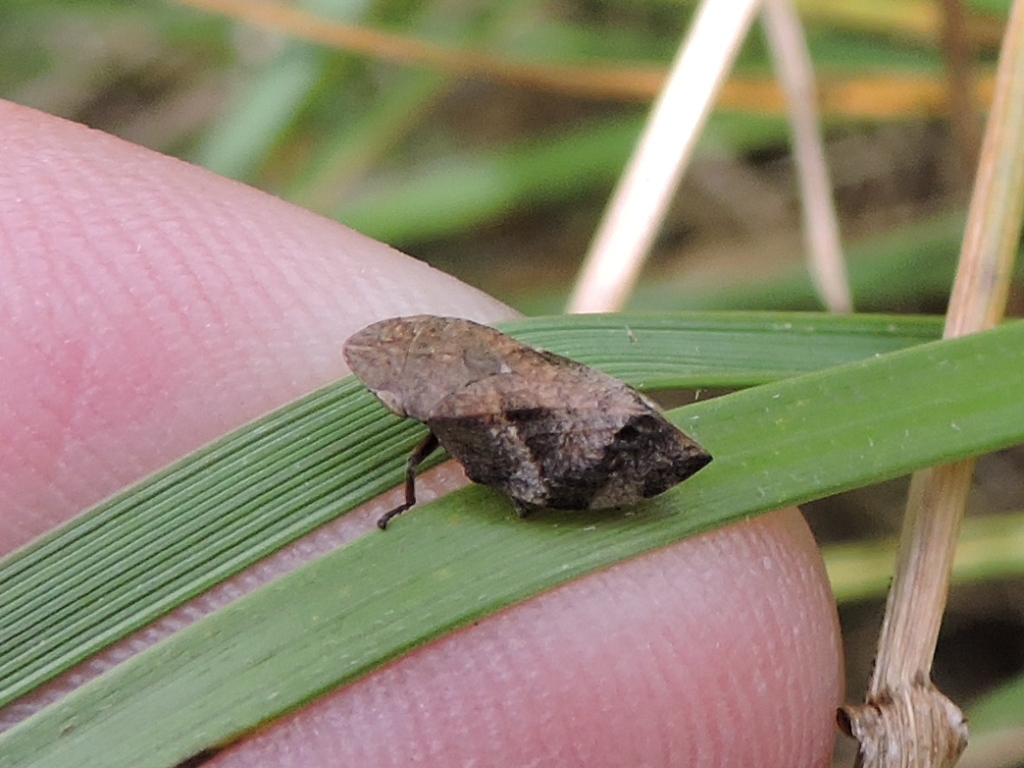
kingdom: Animalia
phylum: Arthropoda
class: Insecta
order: Hemiptera
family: Aphrophoridae
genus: Lepyronia
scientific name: Lepyronia quadrangularis
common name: Diamond-backed spittlebug
